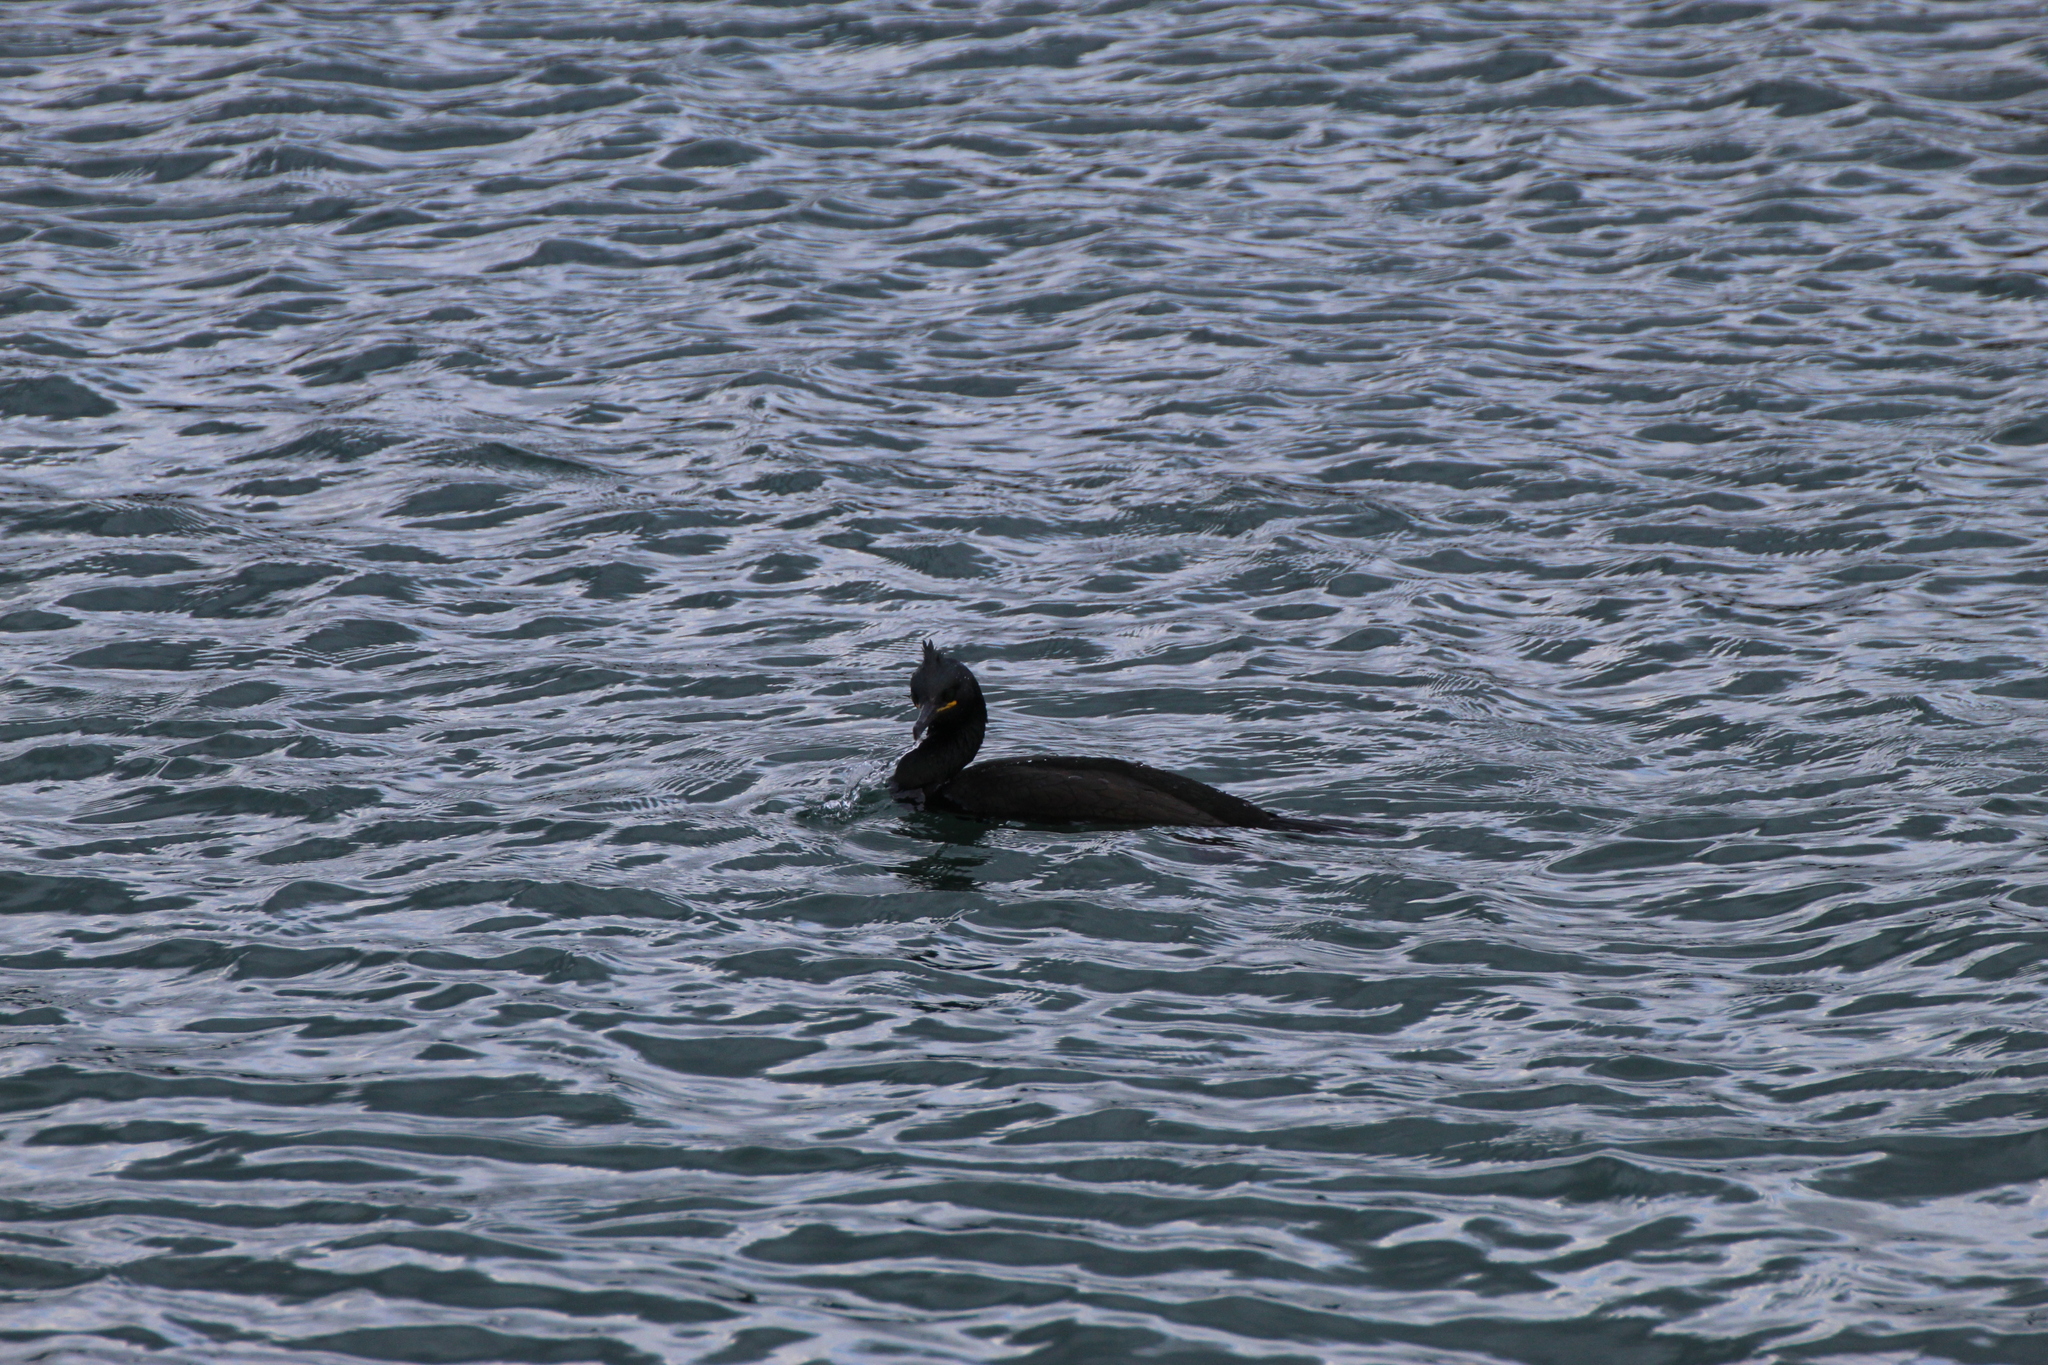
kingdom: Animalia
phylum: Chordata
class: Aves
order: Suliformes
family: Phalacrocoracidae
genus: Phalacrocorax
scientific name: Phalacrocorax aristotelis
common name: European shag
